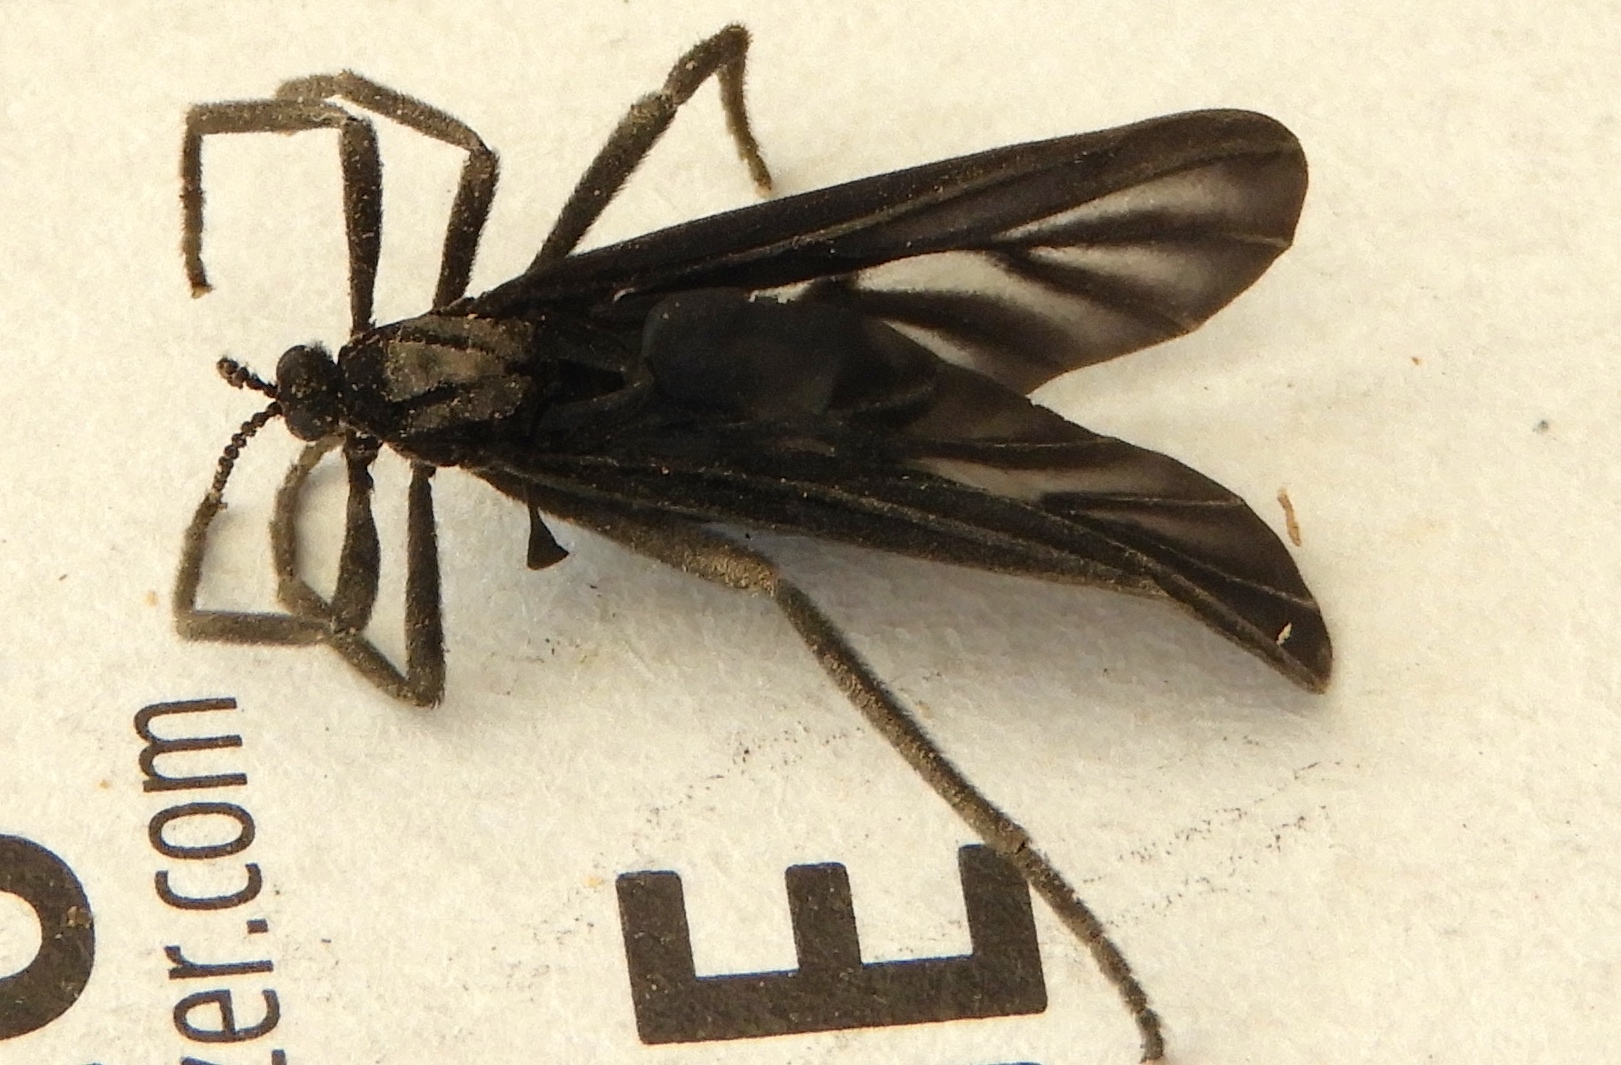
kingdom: Animalia
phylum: Arthropoda
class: Insecta
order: Diptera
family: Bibionidae
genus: Plecia
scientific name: Plecia plagiata
